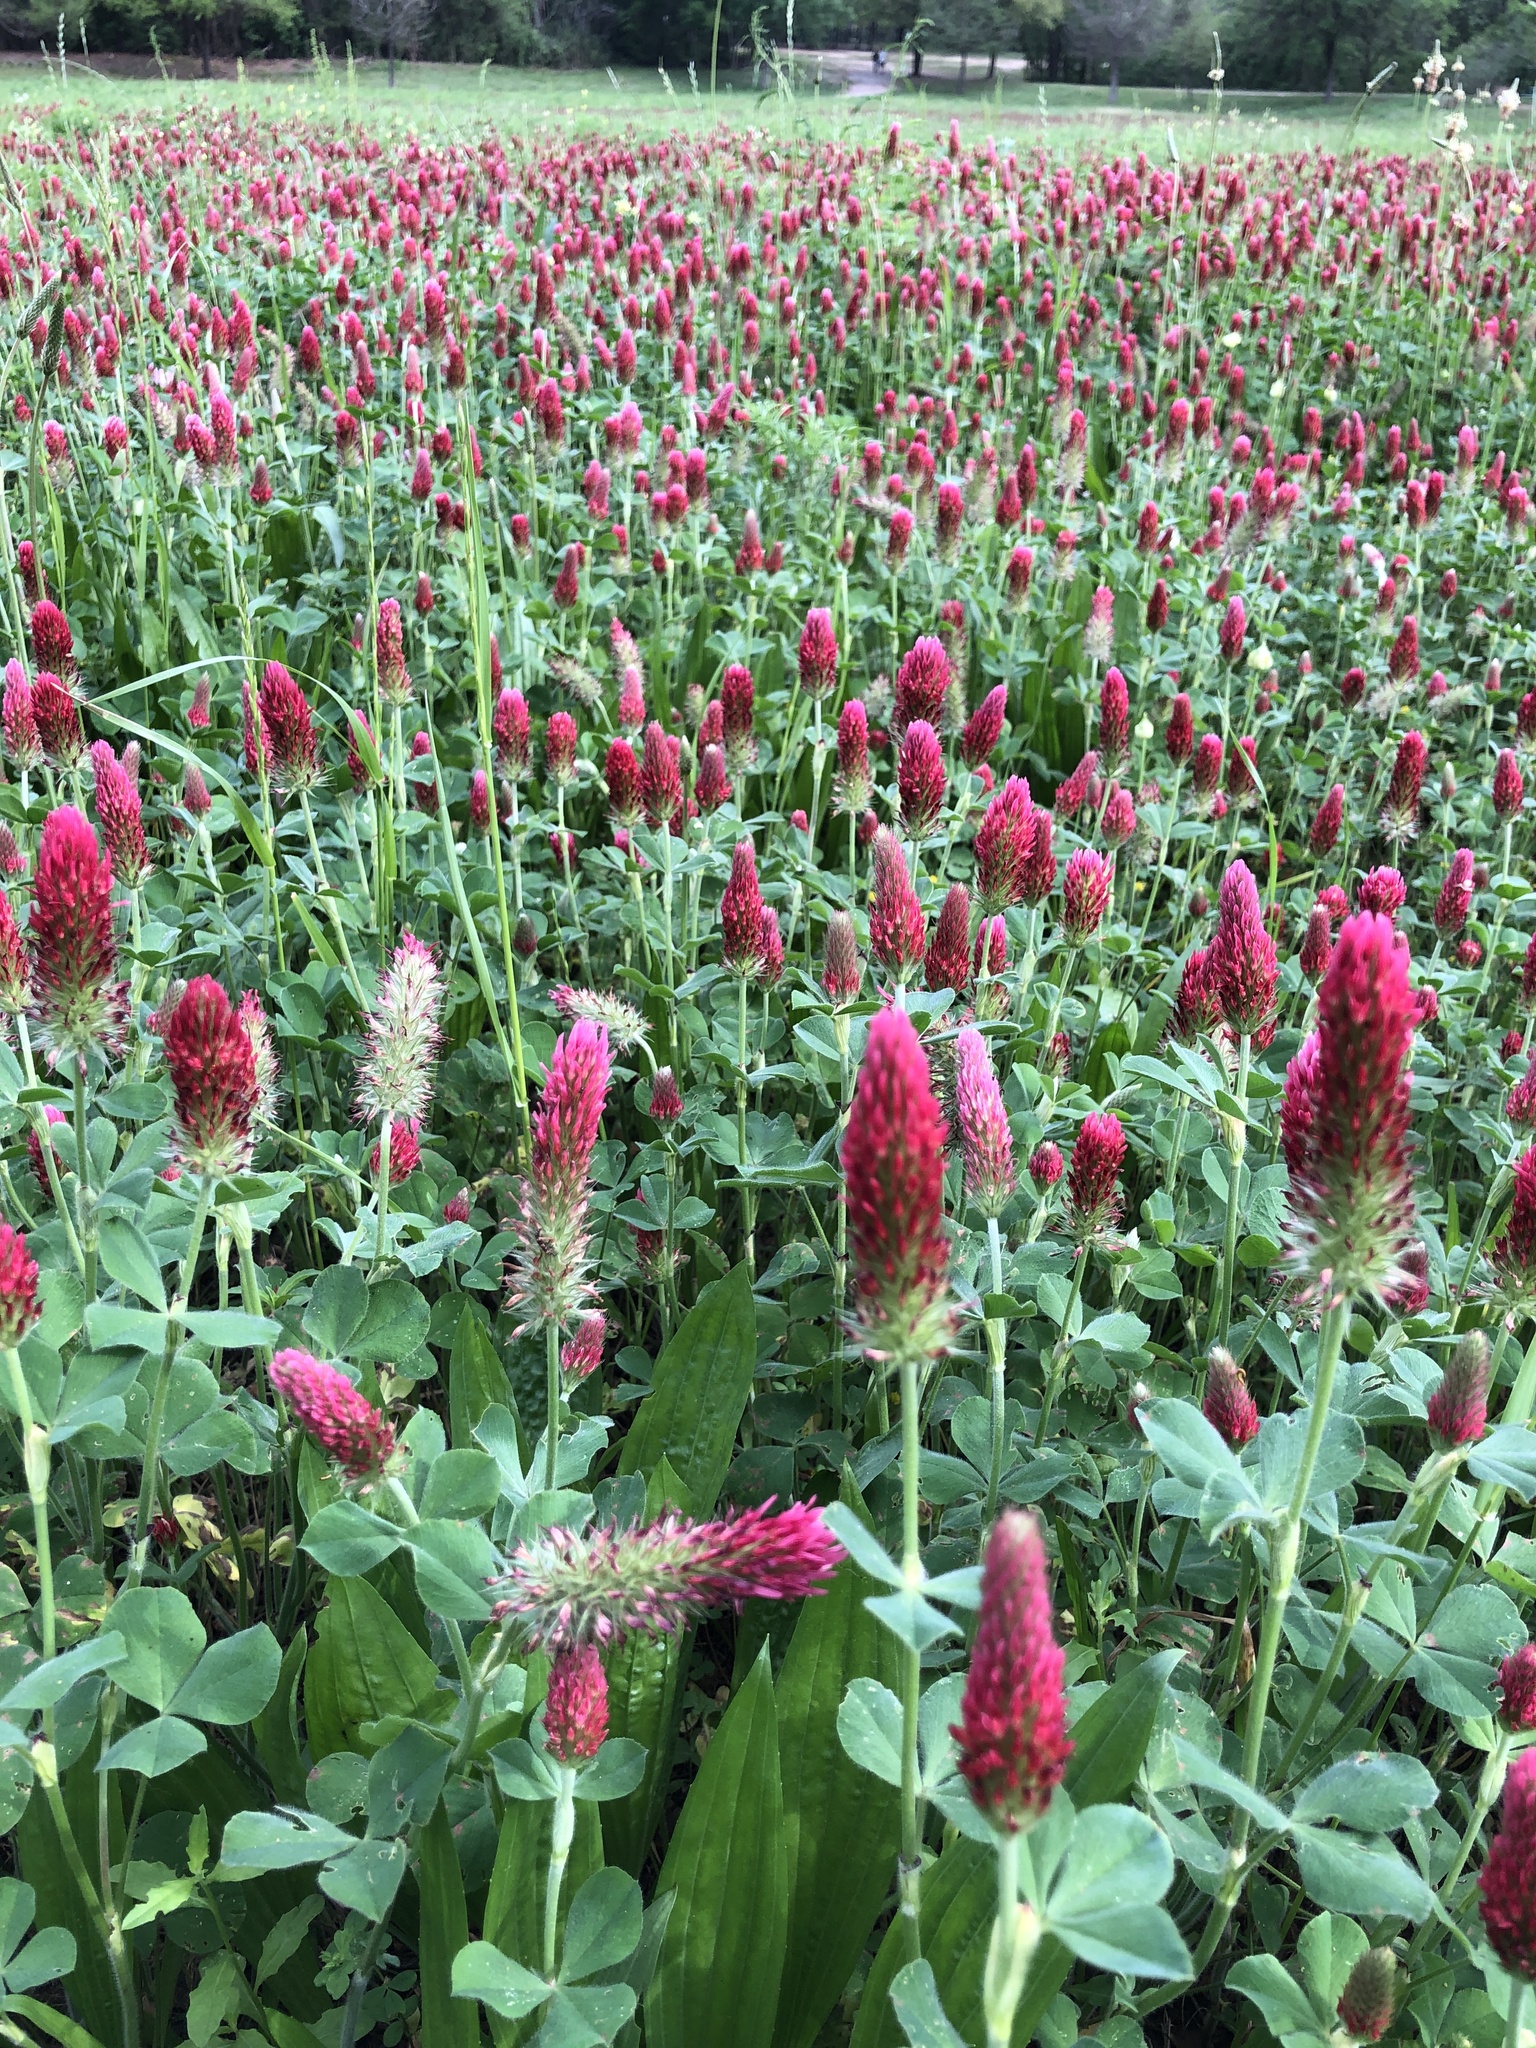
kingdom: Plantae
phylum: Tracheophyta
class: Magnoliopsida
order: Fabales
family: Fabaceae
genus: Trifolium
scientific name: Trifolium incarnatum
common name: Crimson clover
